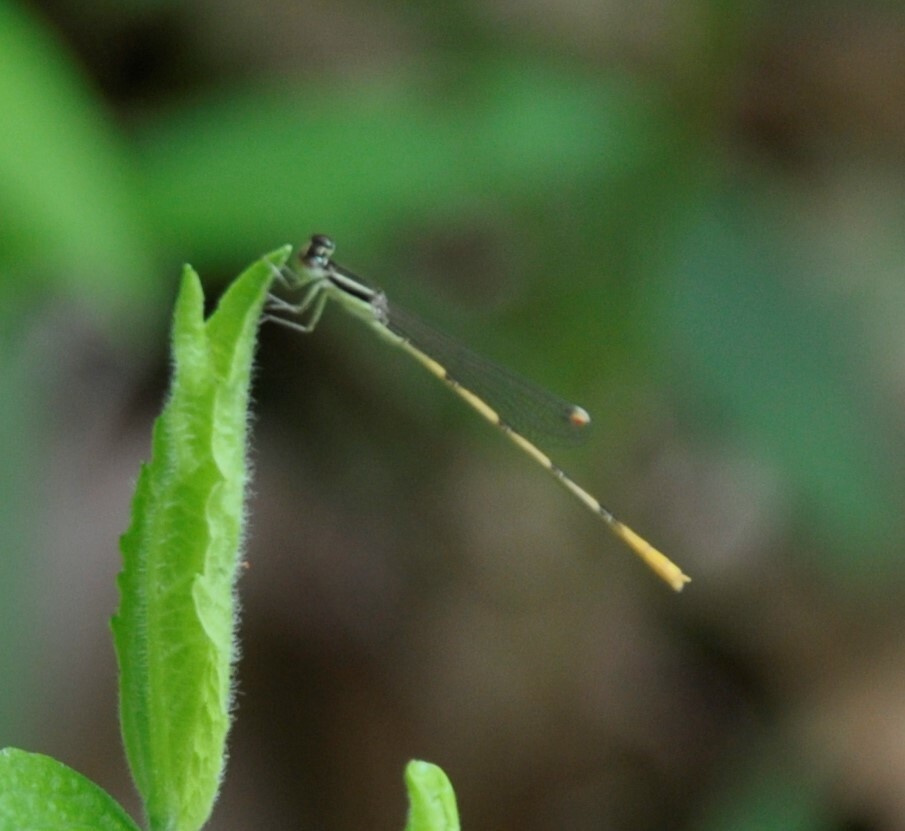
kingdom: Animalia
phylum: Arthropoda
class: Insecta
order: Odonata
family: Coenagrionidae
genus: Ischnura
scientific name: Ischnura hastata
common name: Citrine forktail
